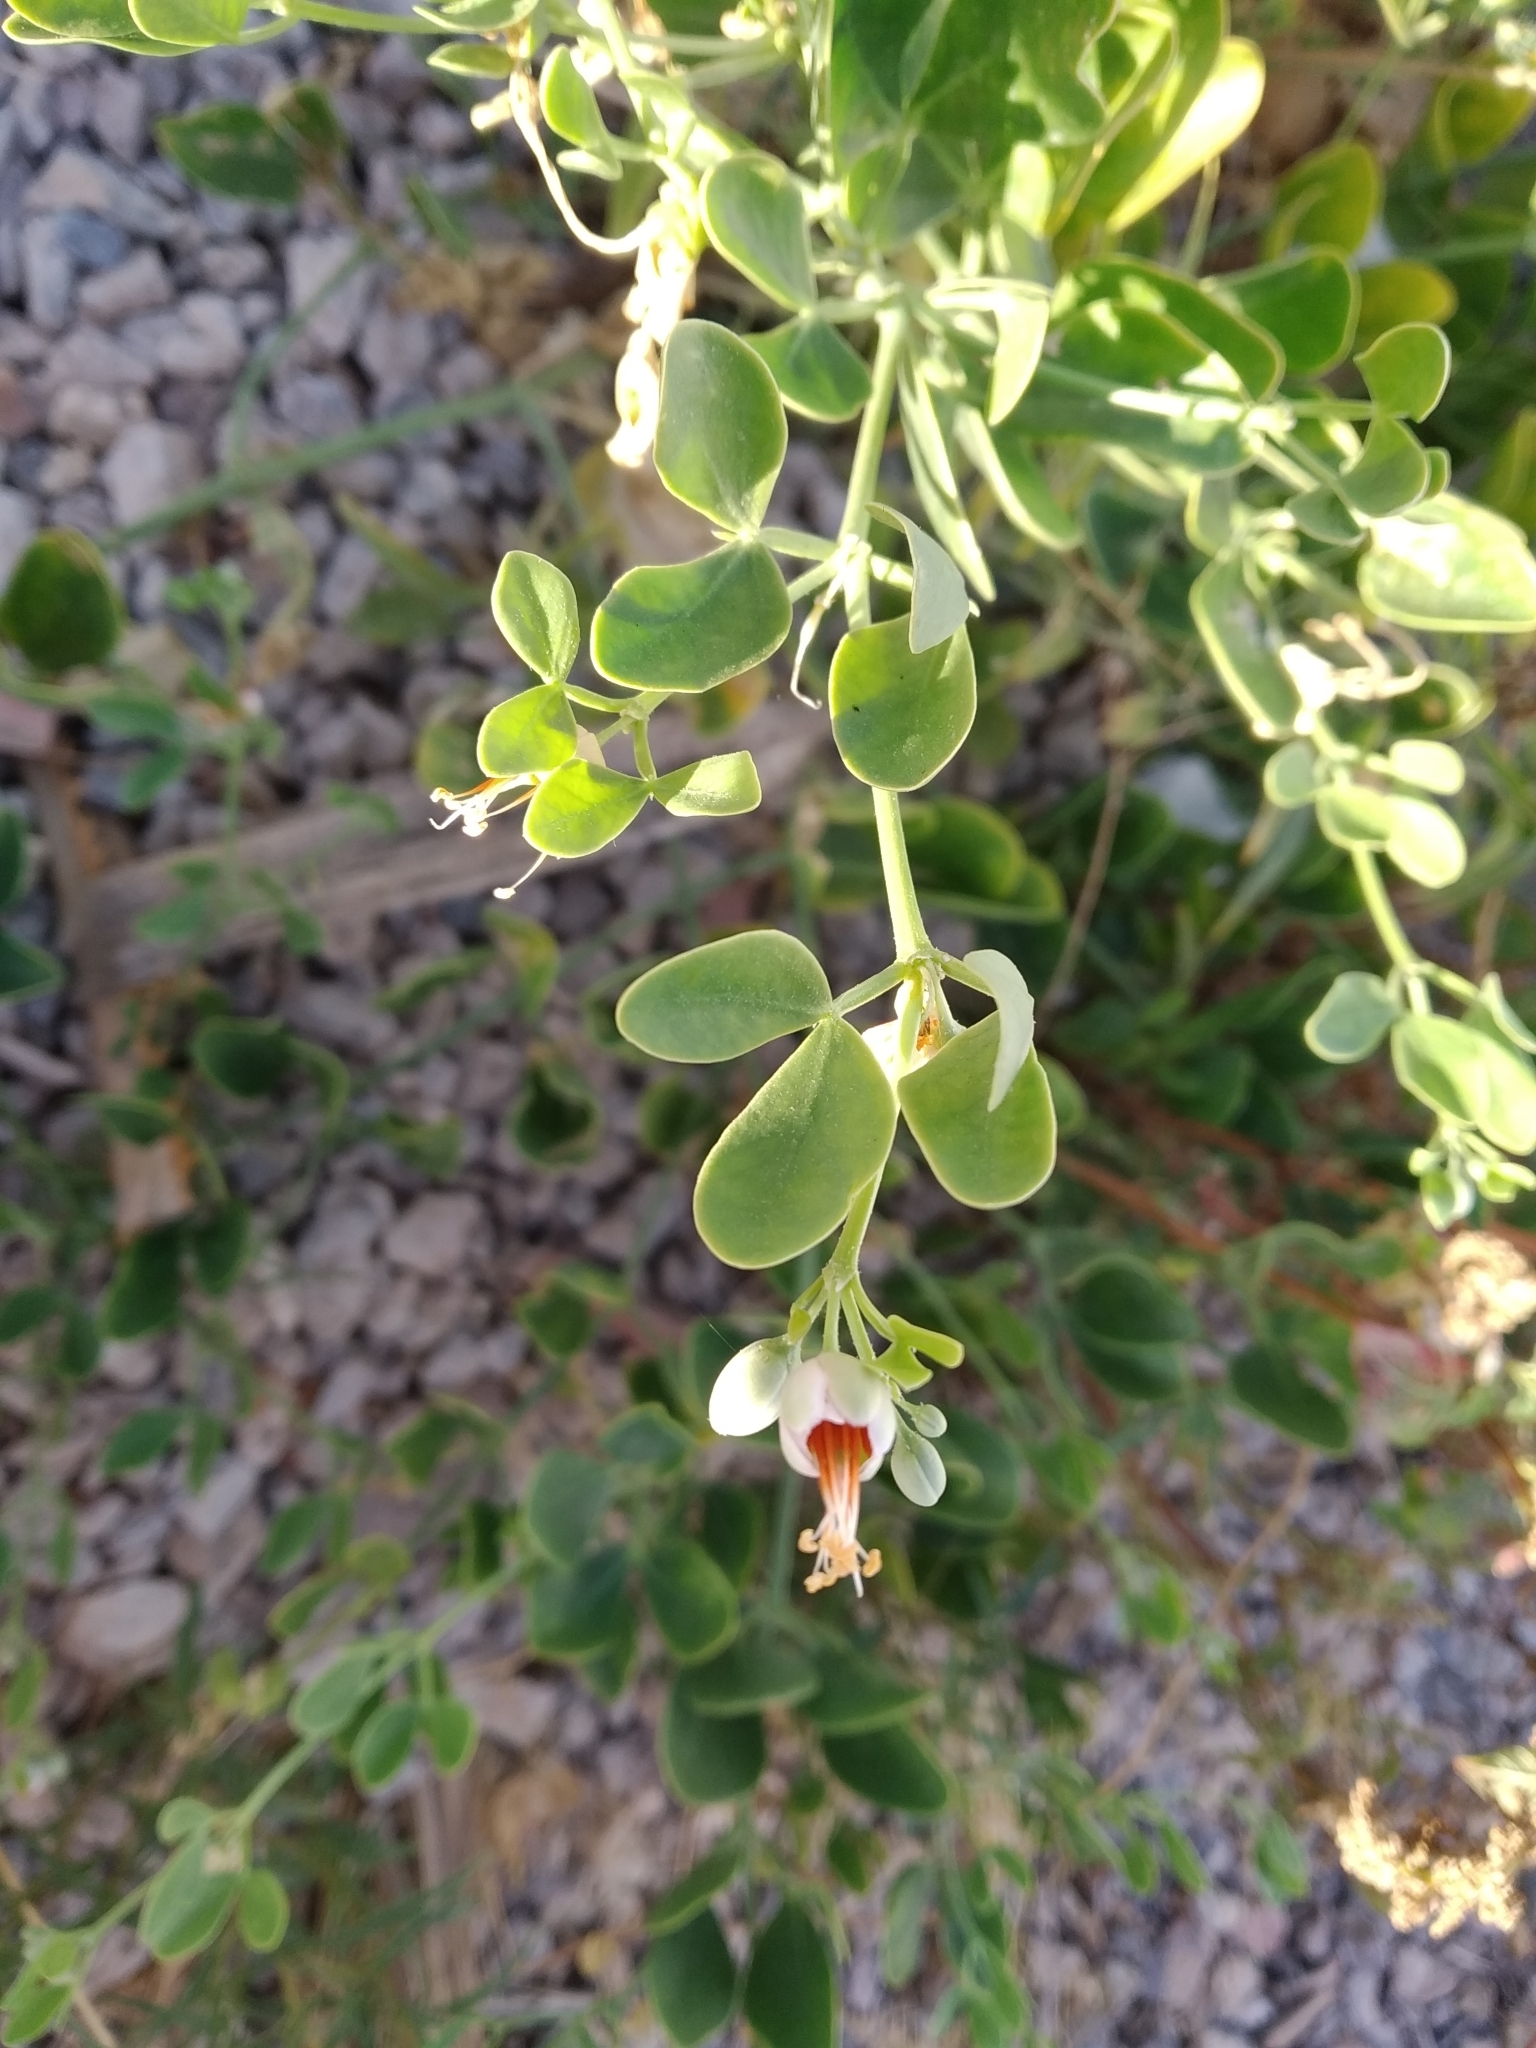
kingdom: Plantae
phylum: Tracheophyta
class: Magnoliopsida
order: Zygophyllales
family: Zygophyllaceae
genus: Zygophyllum
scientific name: Zygophyllum fabago
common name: Syrian beancaper
